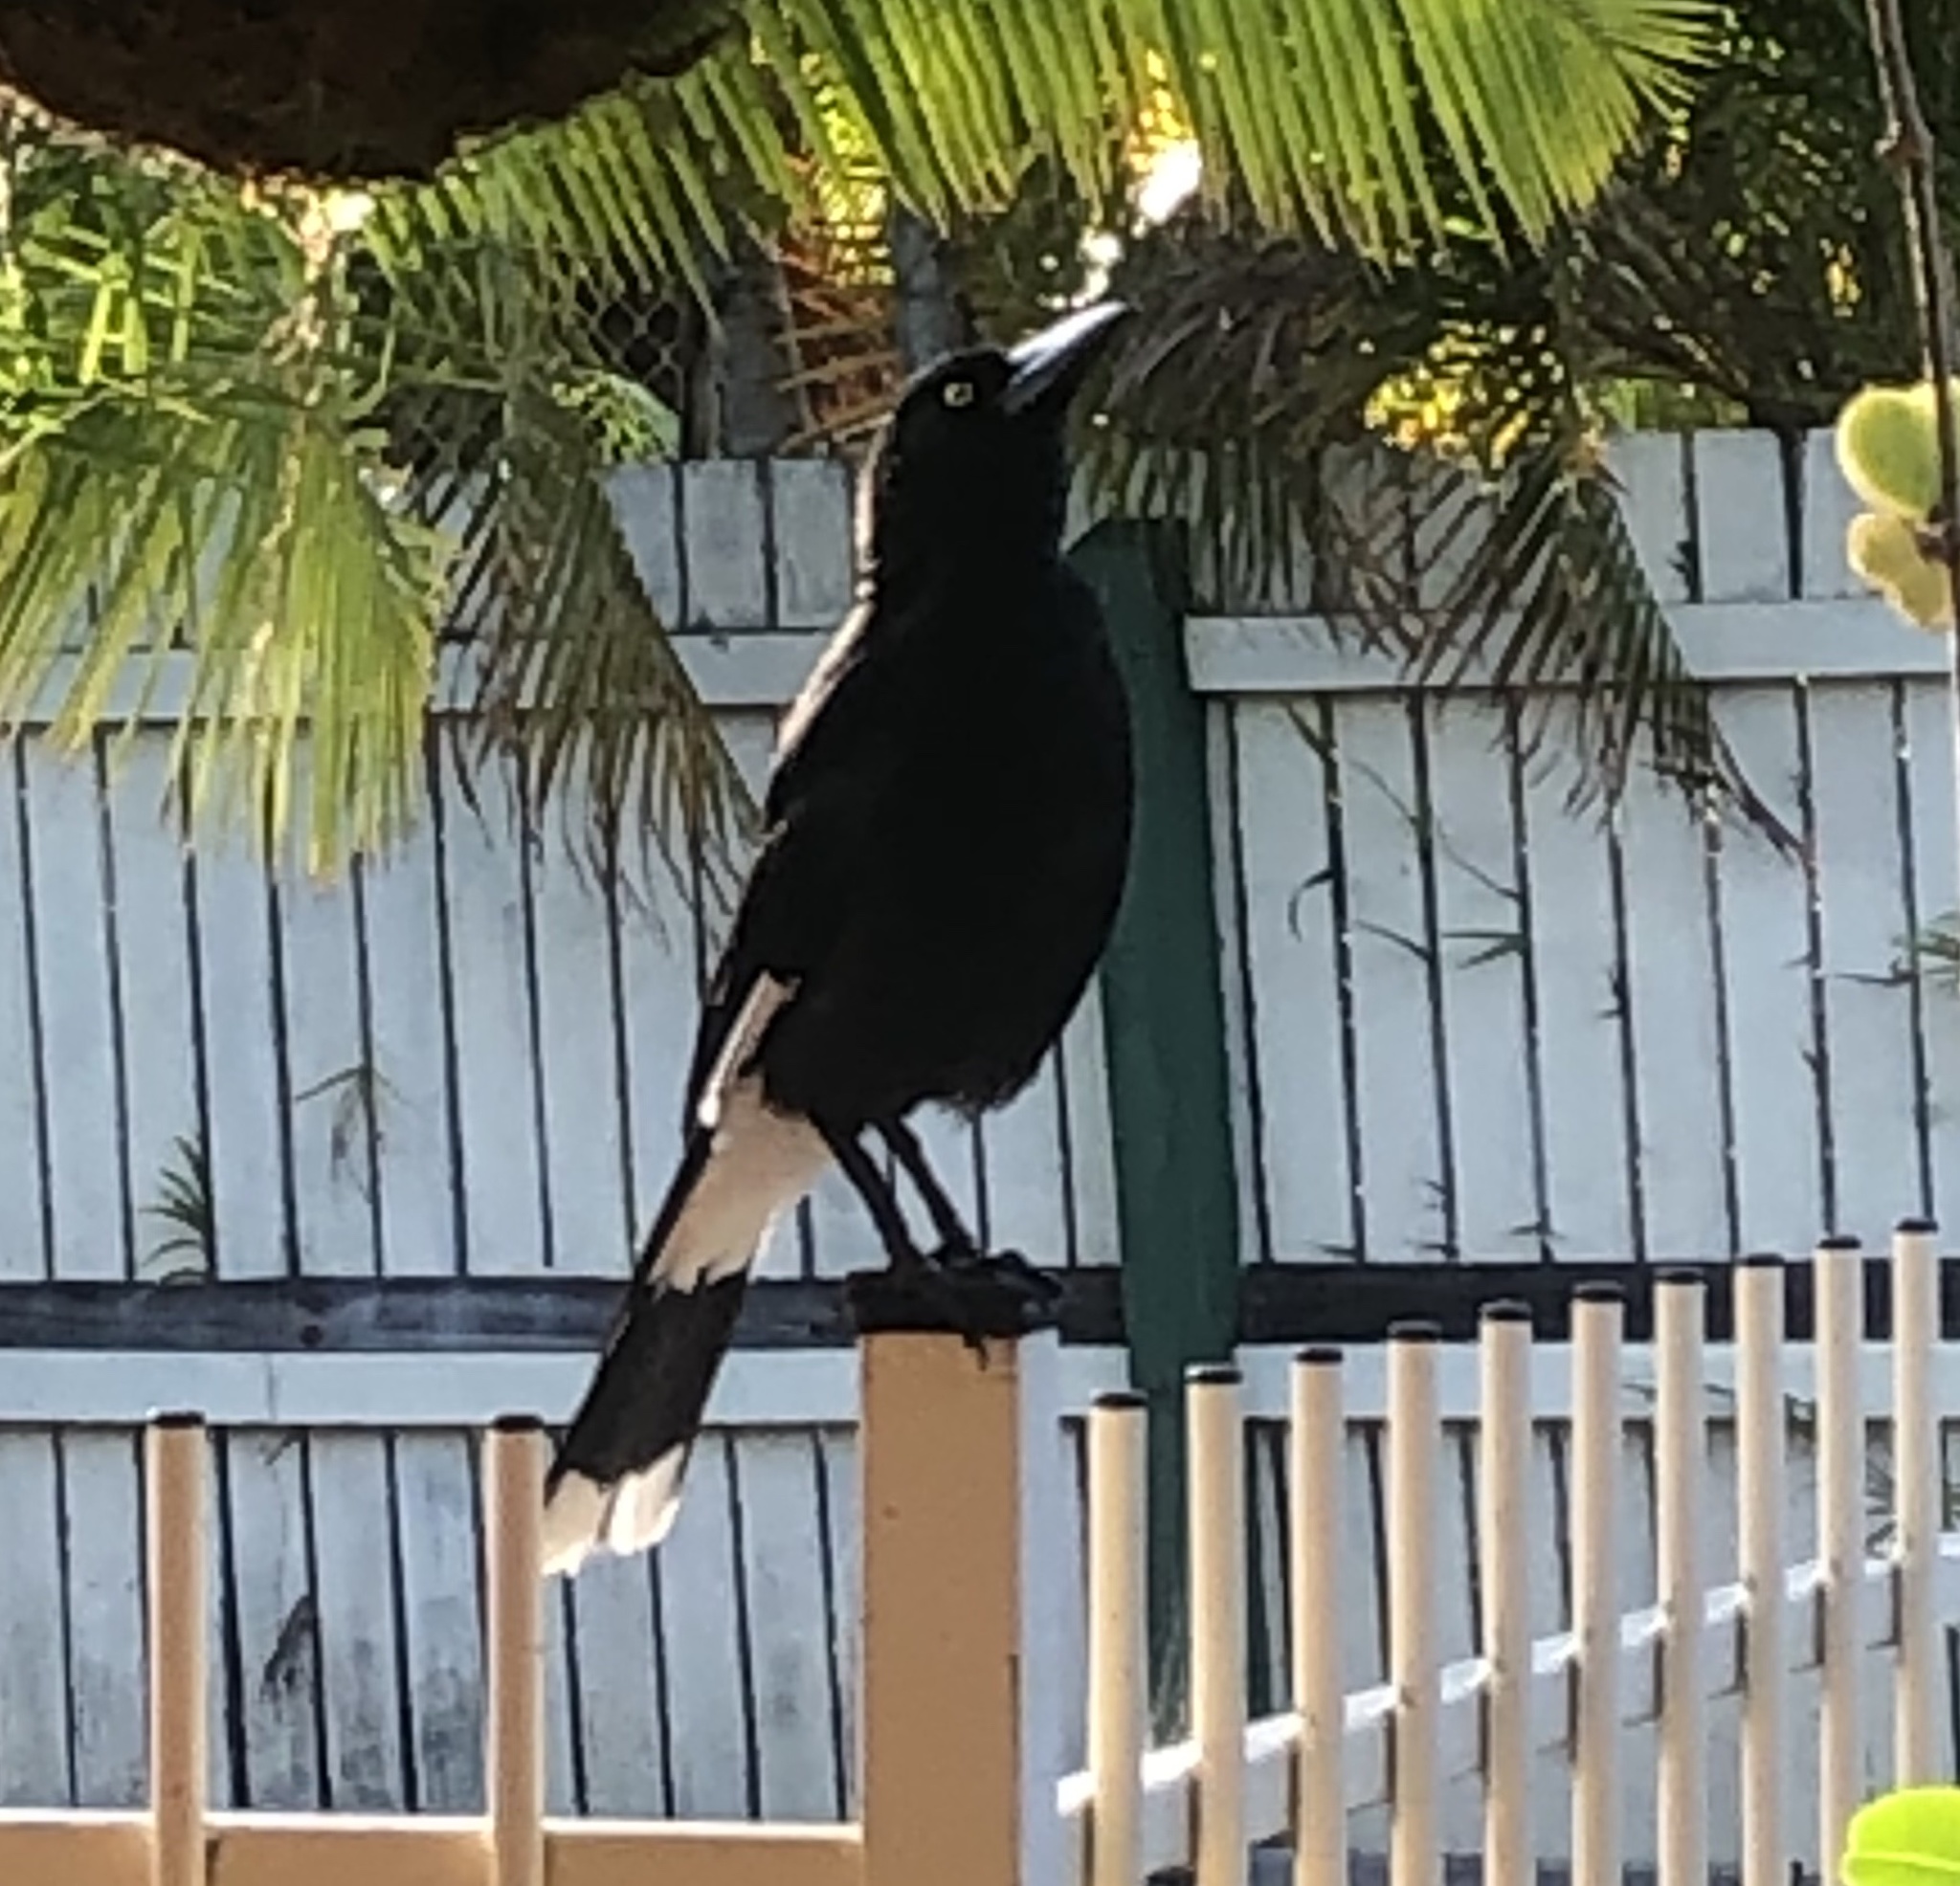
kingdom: Animalia
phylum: Chordata
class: Aves
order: Passeriformes
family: Cracticidae
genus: Strepera
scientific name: Strepera graculina
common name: Pied currawong
